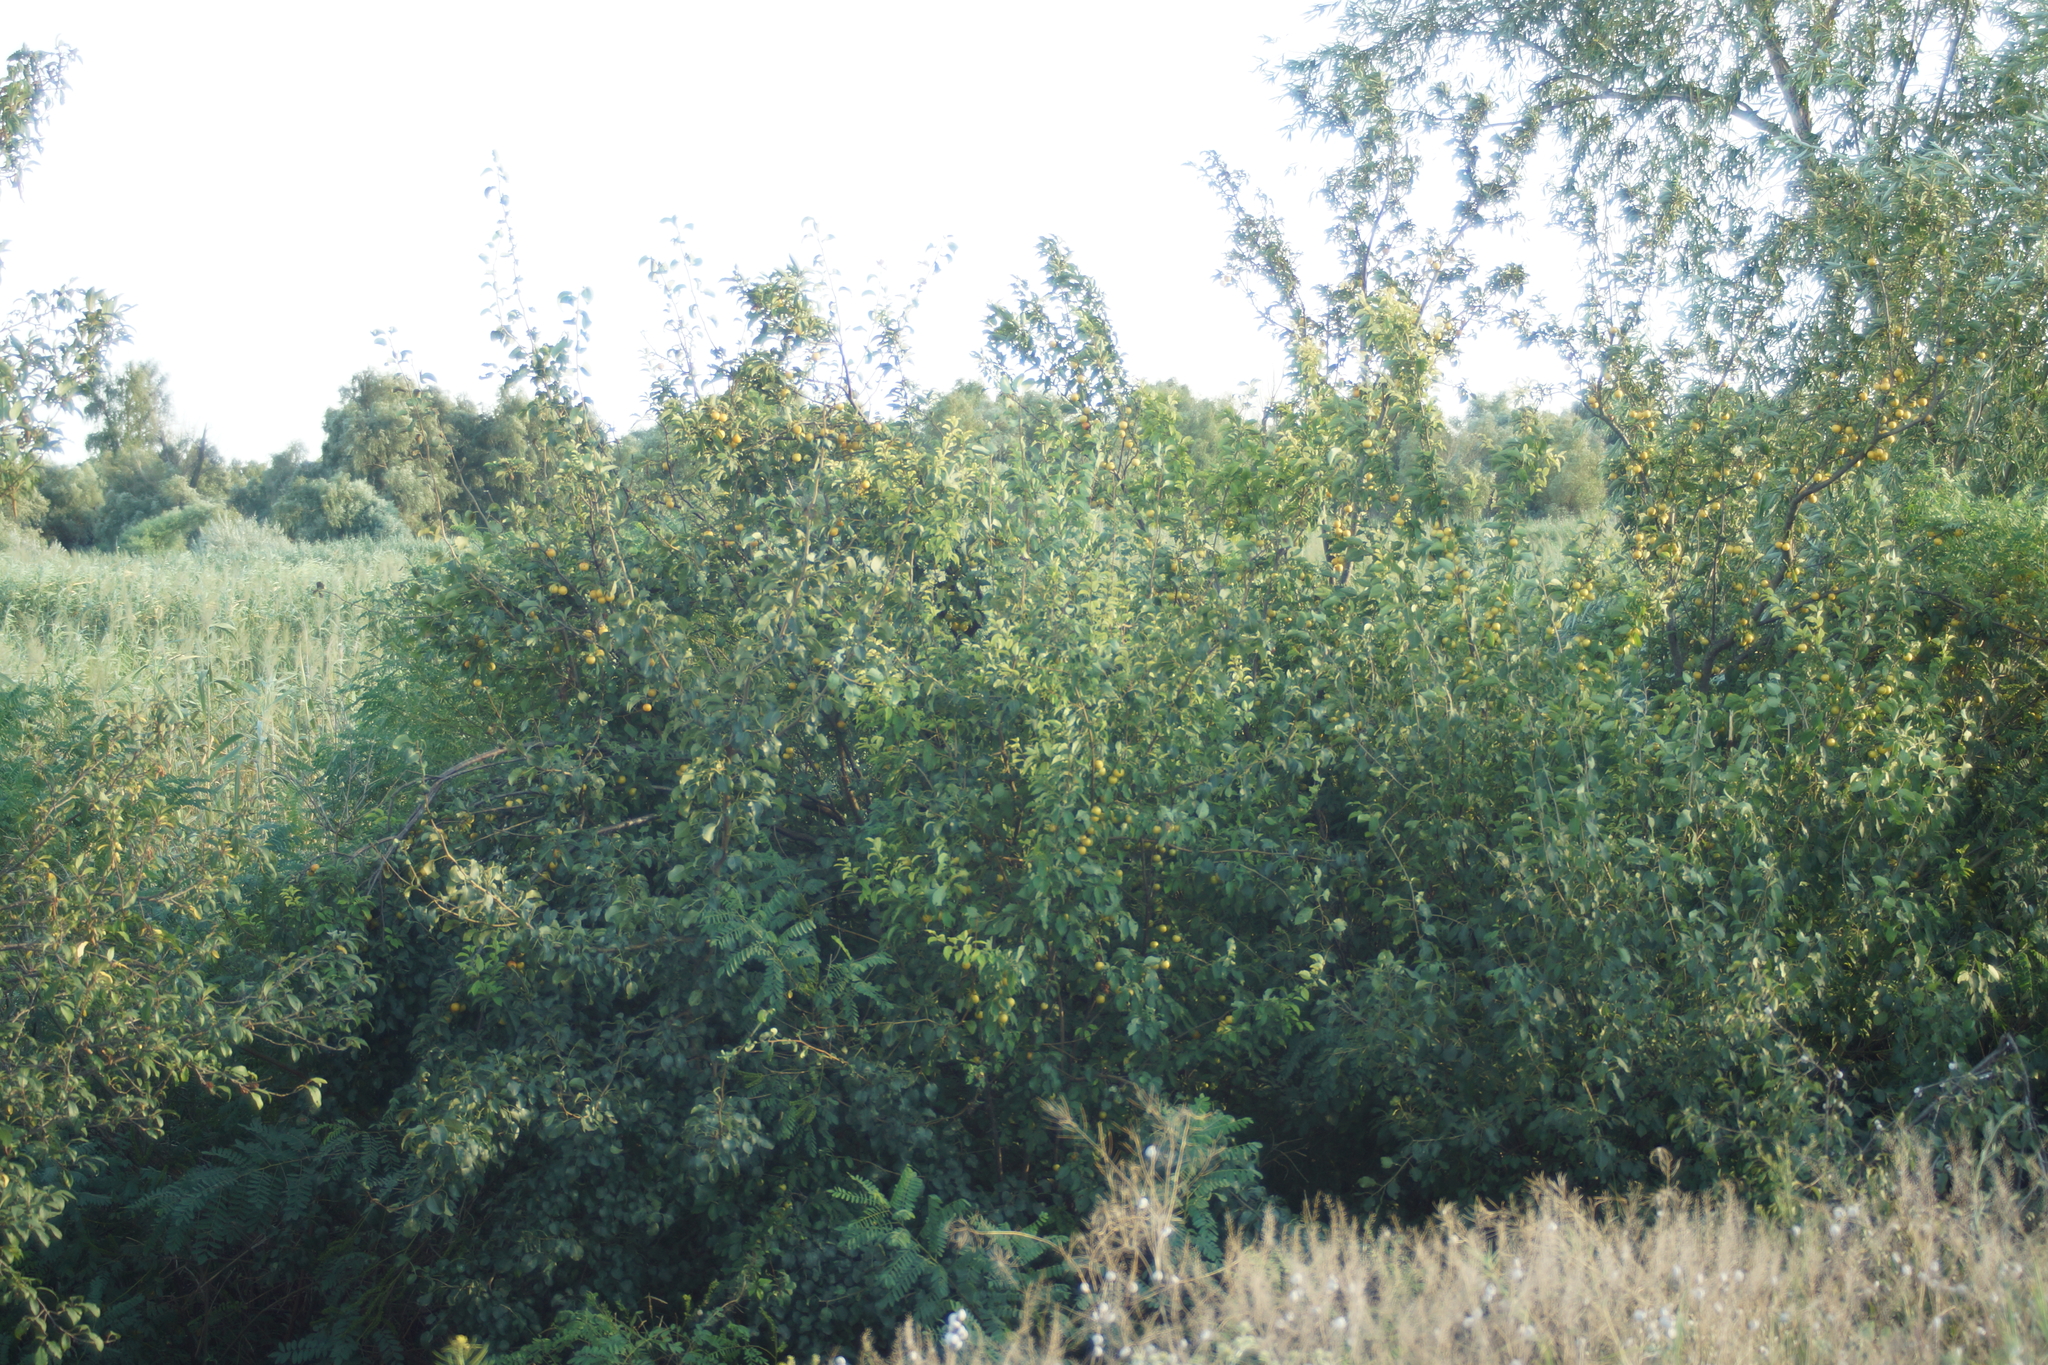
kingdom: Plantae
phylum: Tracheophyta
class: Magnoliopsida
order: Rosales
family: Rosaceae
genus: Prunus
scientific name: Prunus cerasifera
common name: Cherry plum
